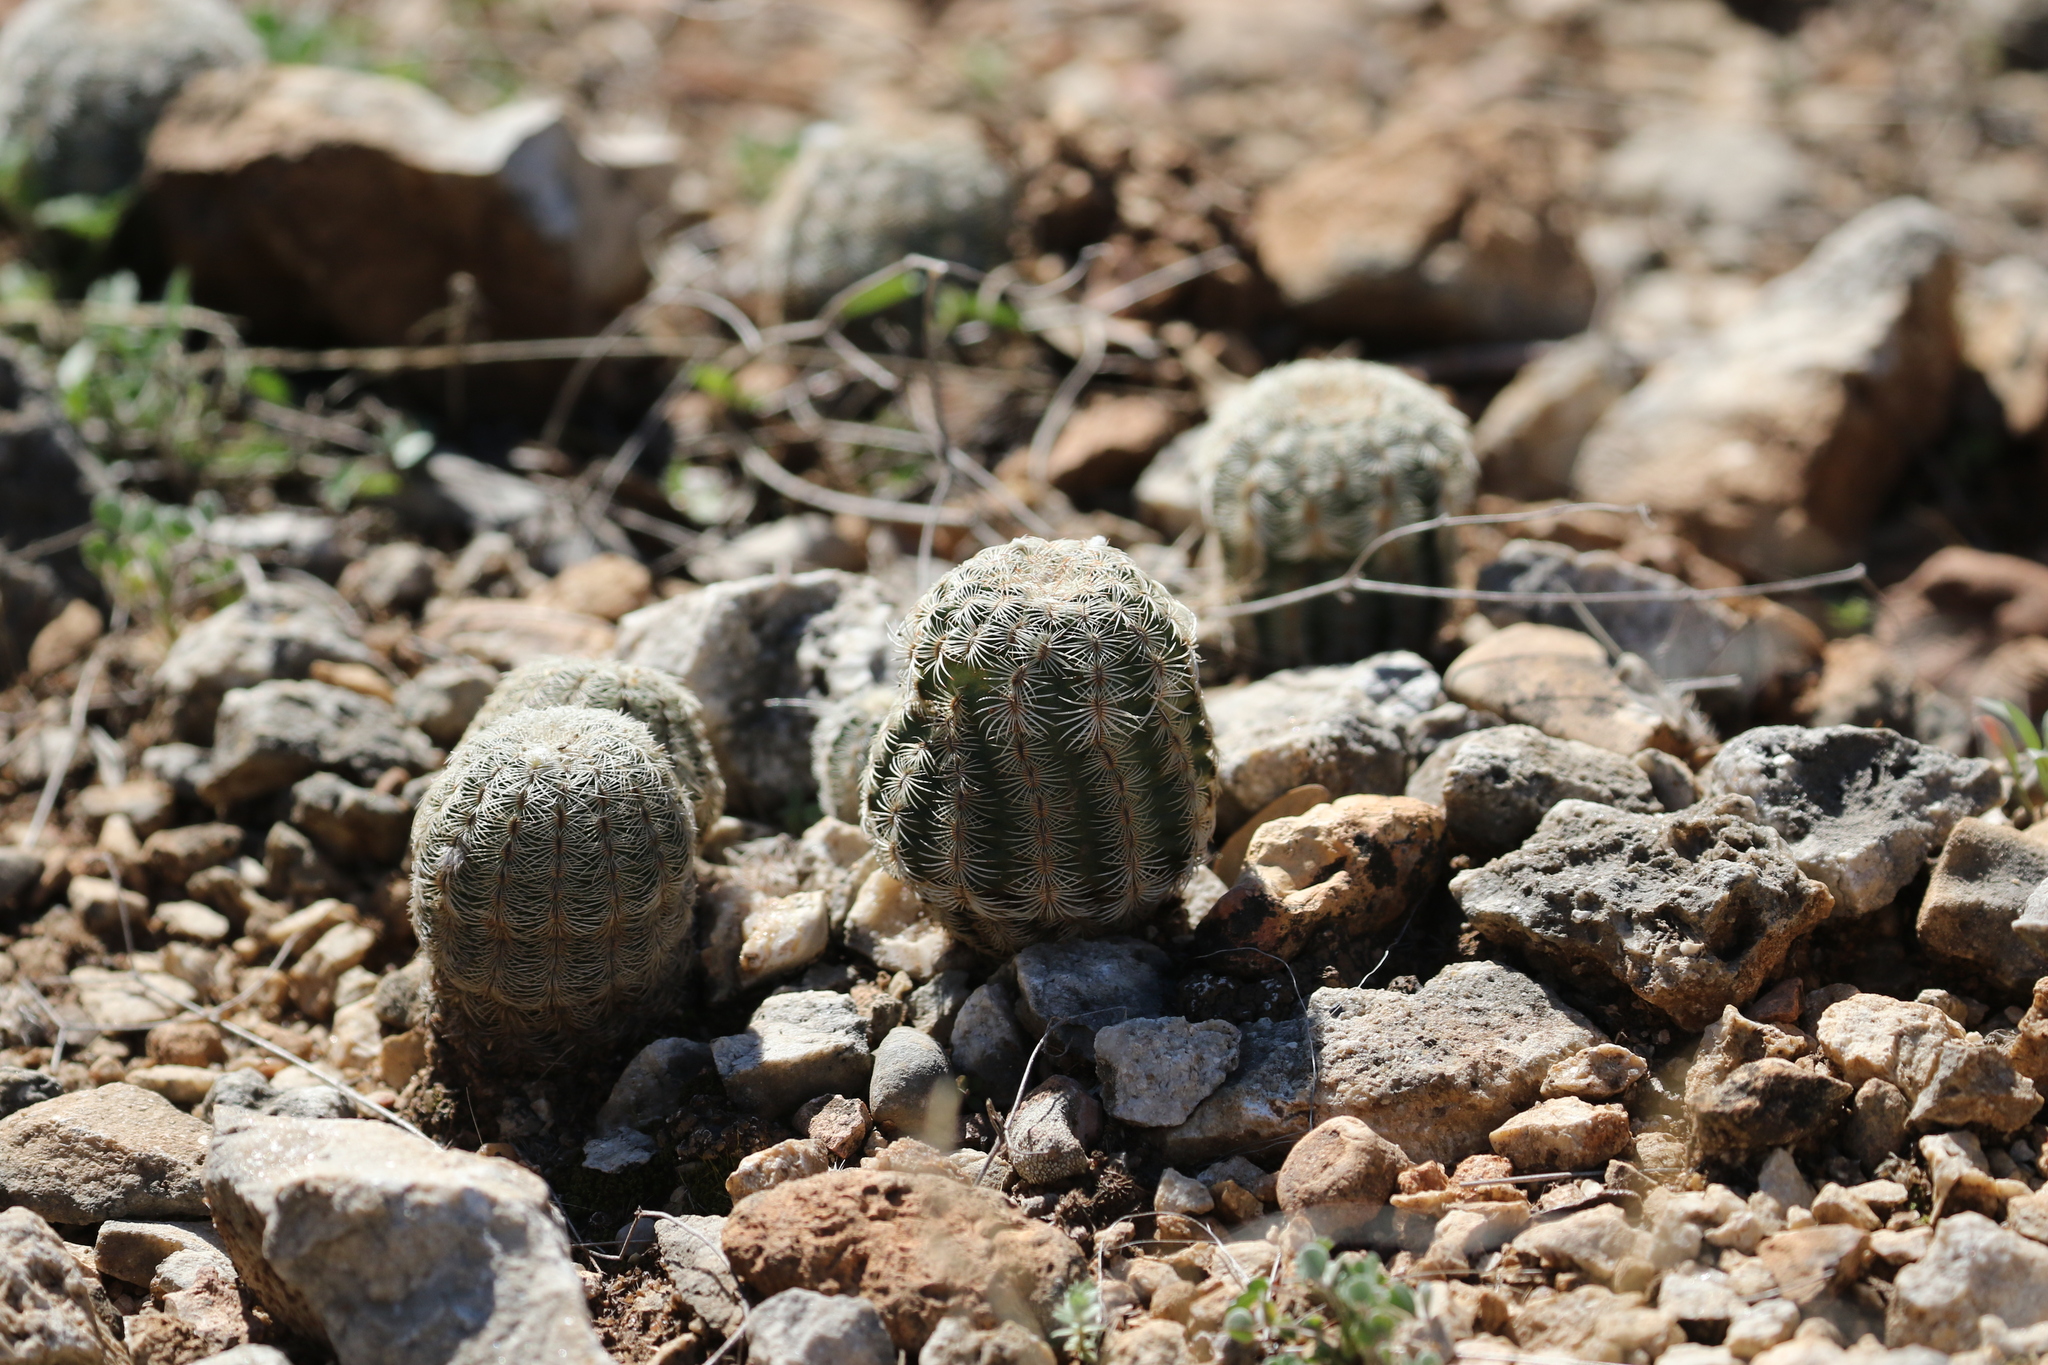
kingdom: Plantae
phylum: Tracheophyta
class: Magnoliopsida
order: Caryophyllales
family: Cactaceae
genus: Echinocereus
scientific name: Echinocereus reichenbachii
